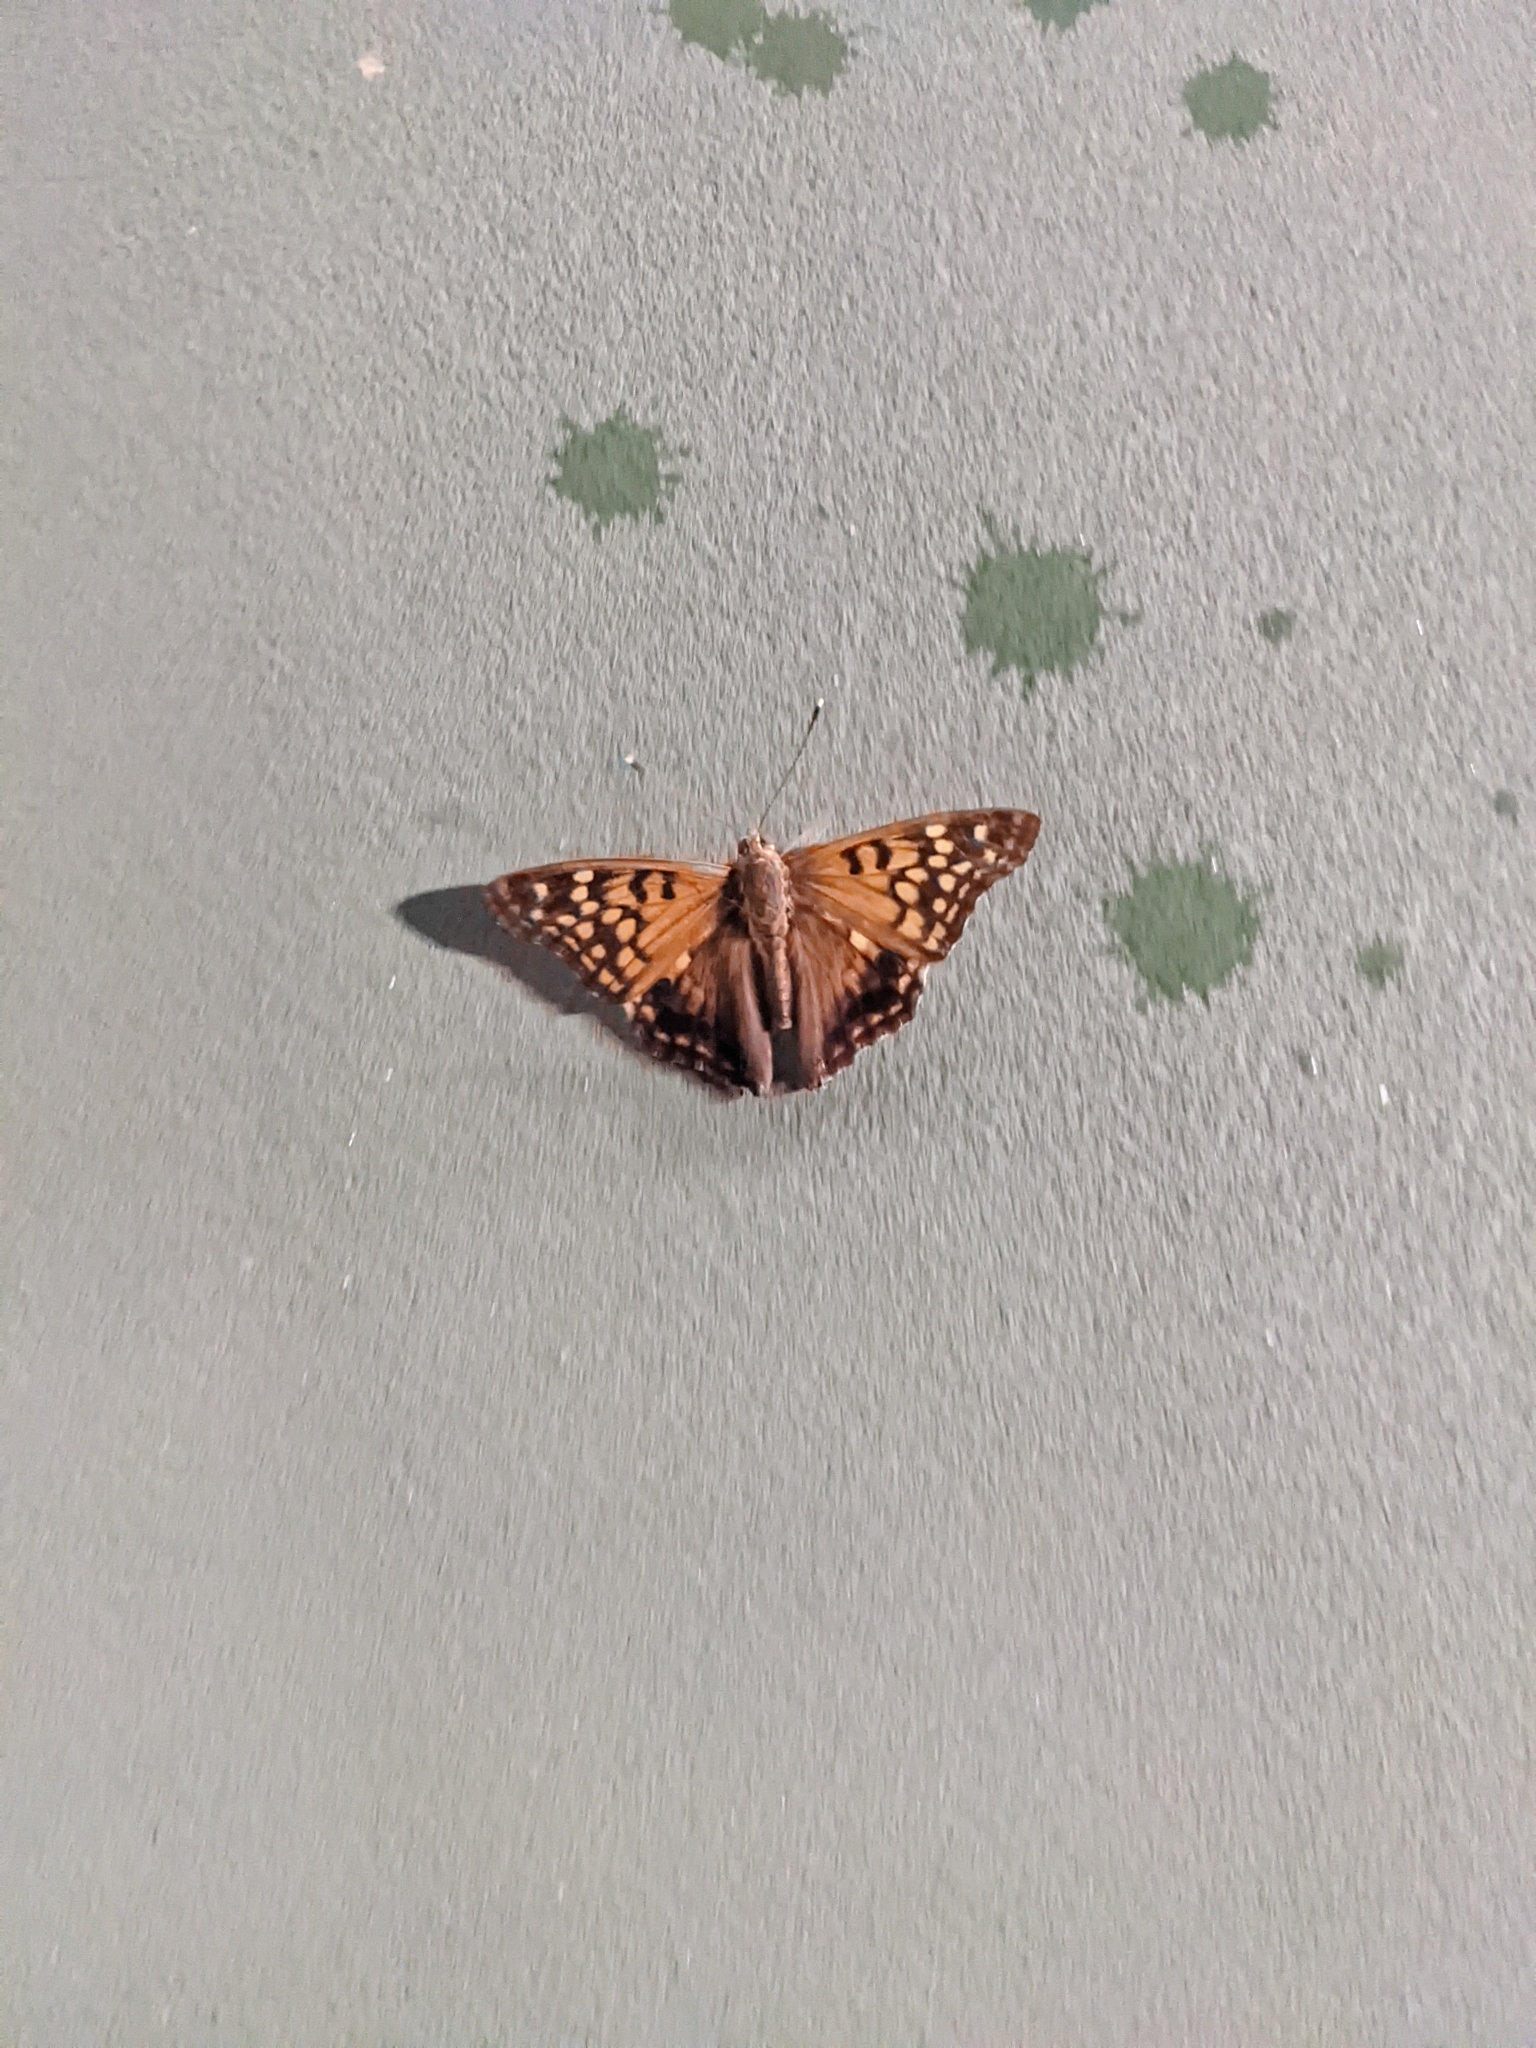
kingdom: Animalia
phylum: Arthropoda
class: Insecta
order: Lepidoptera
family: Nymphalidae
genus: Asterocampa
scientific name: Asterocampa clyton
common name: Tawny emperor
